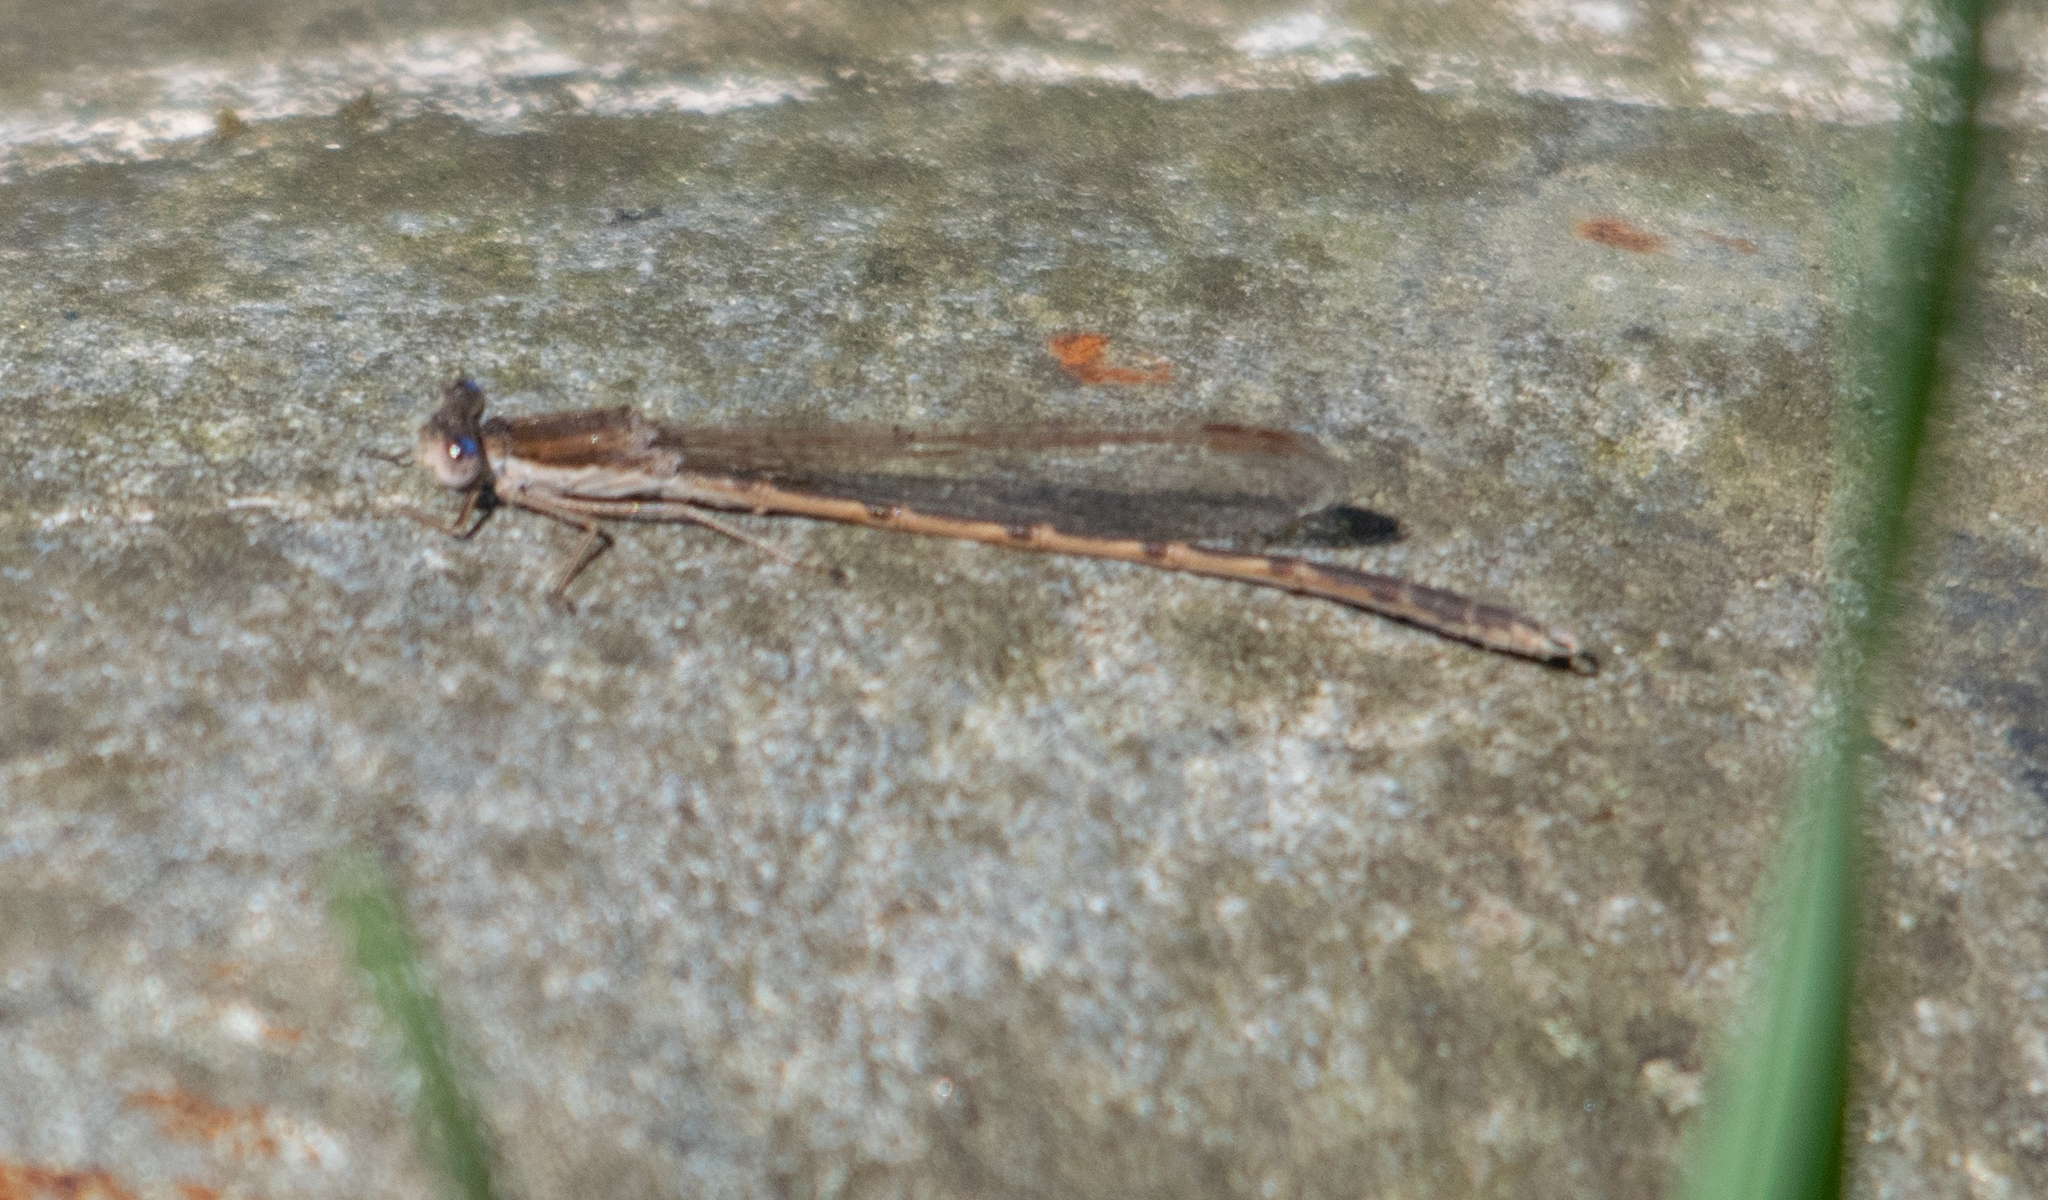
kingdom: Animalia
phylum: Arthropoda
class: Insecta
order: Odonata
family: Lestidae
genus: Sympecma
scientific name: Sympecma fusca
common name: Common winter damsel
